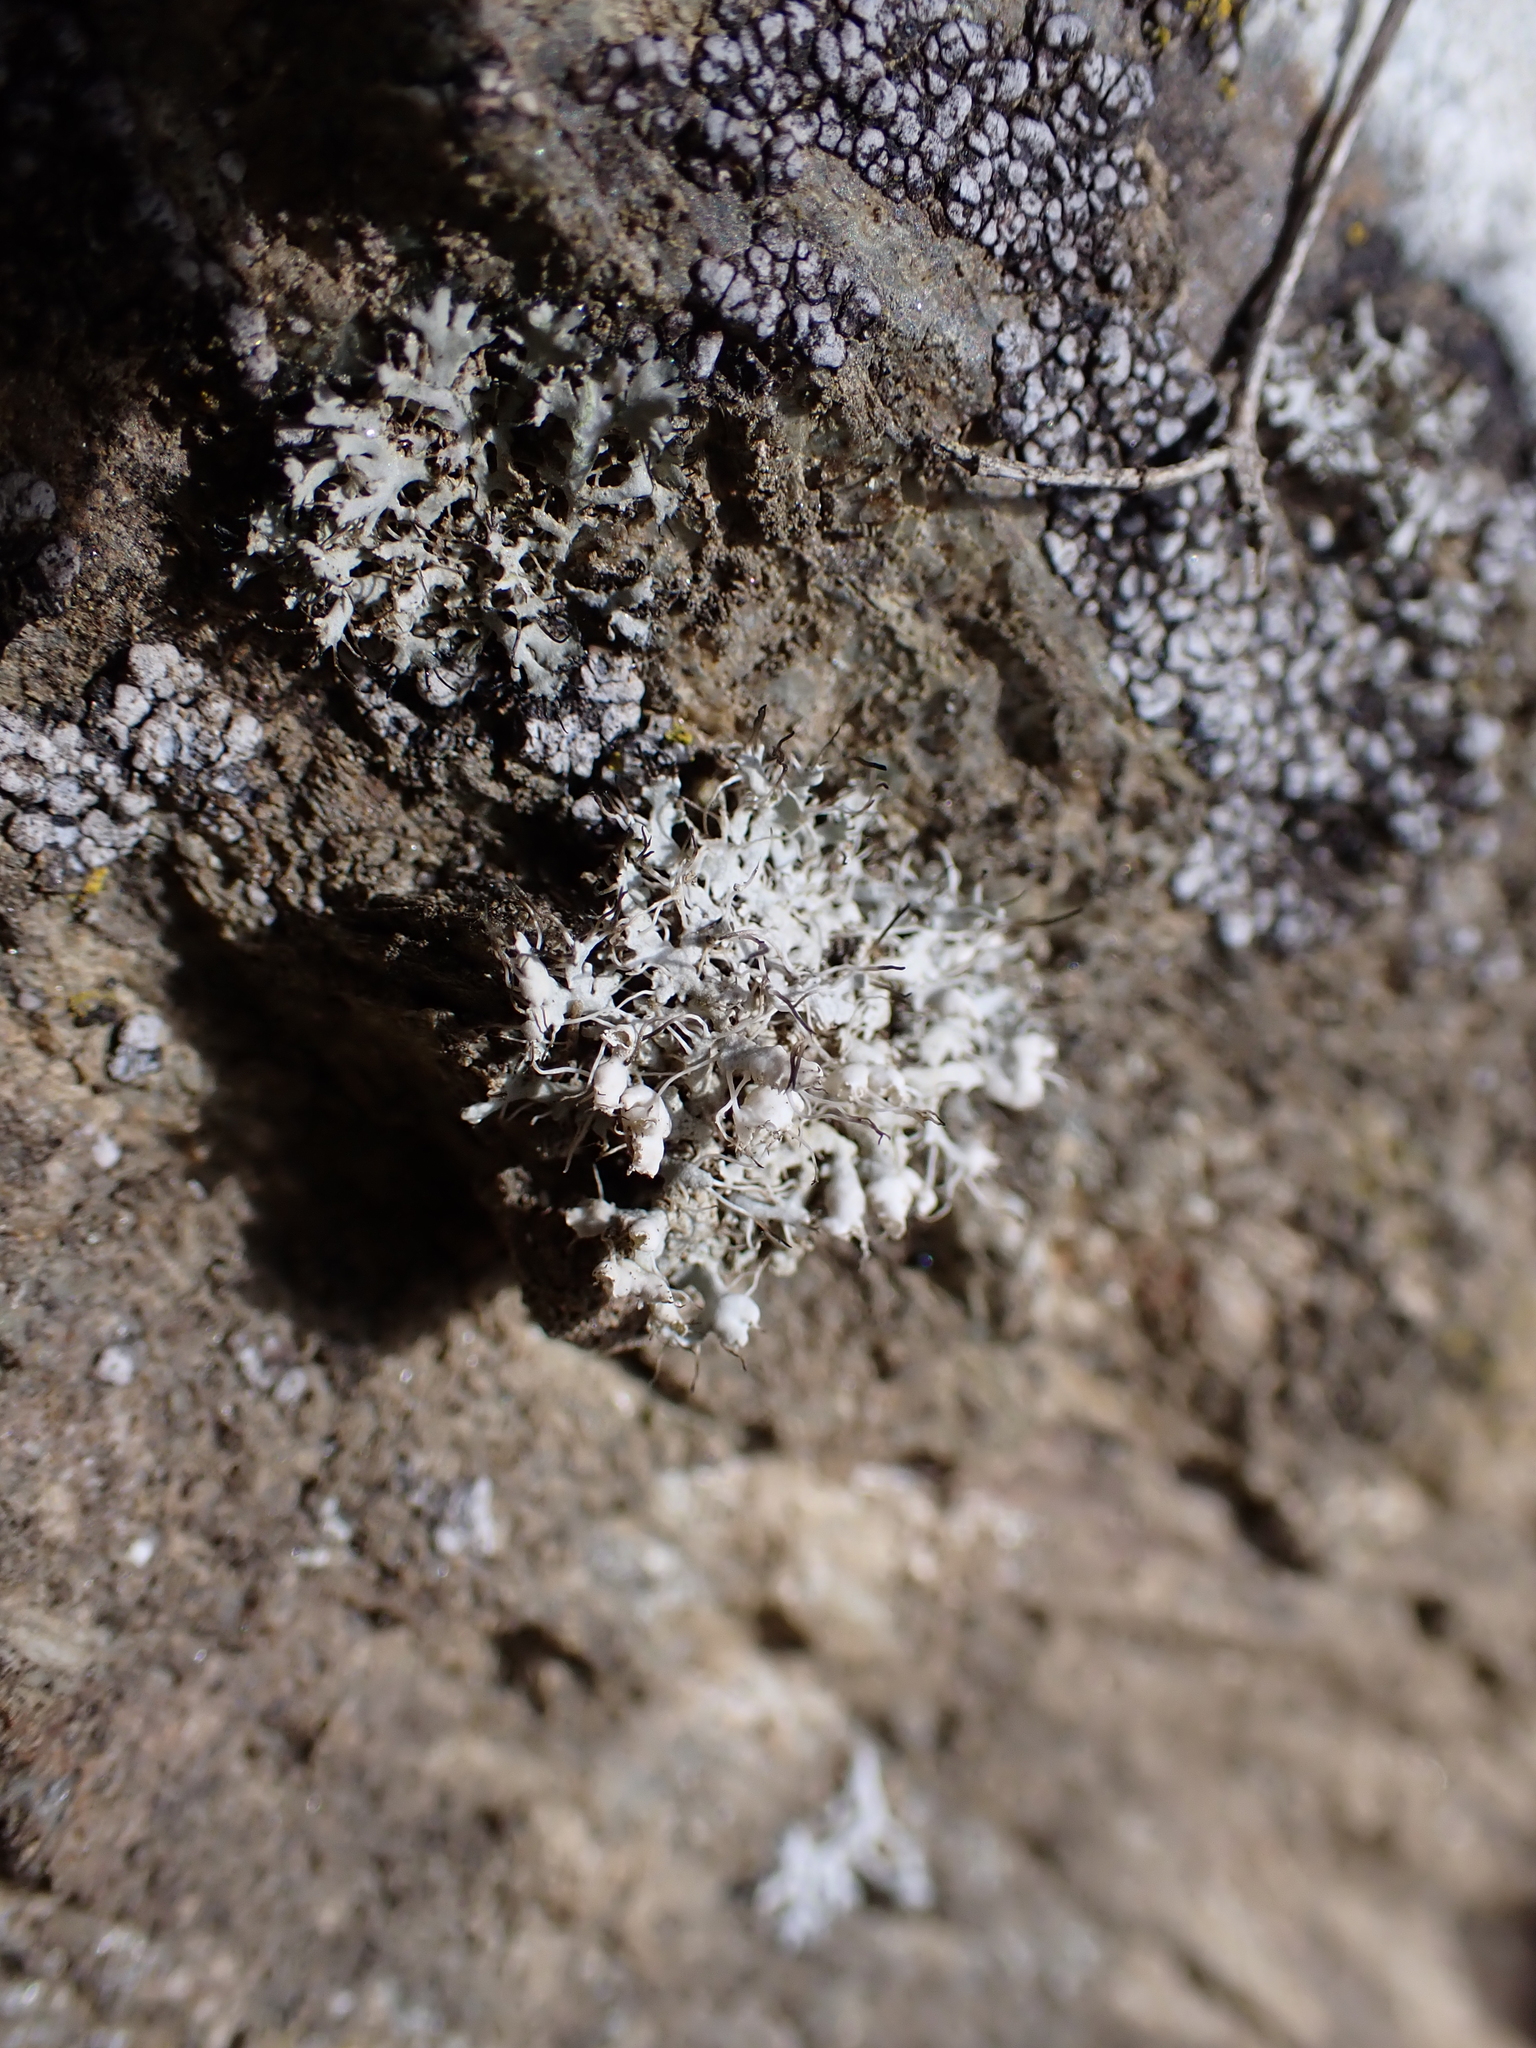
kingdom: Fungi
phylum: Ascomycota
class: Lecanoromycetes
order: Caliciales
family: Physciaceae
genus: Physcia
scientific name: Physcia adscendens
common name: Hooded rosette lichen
